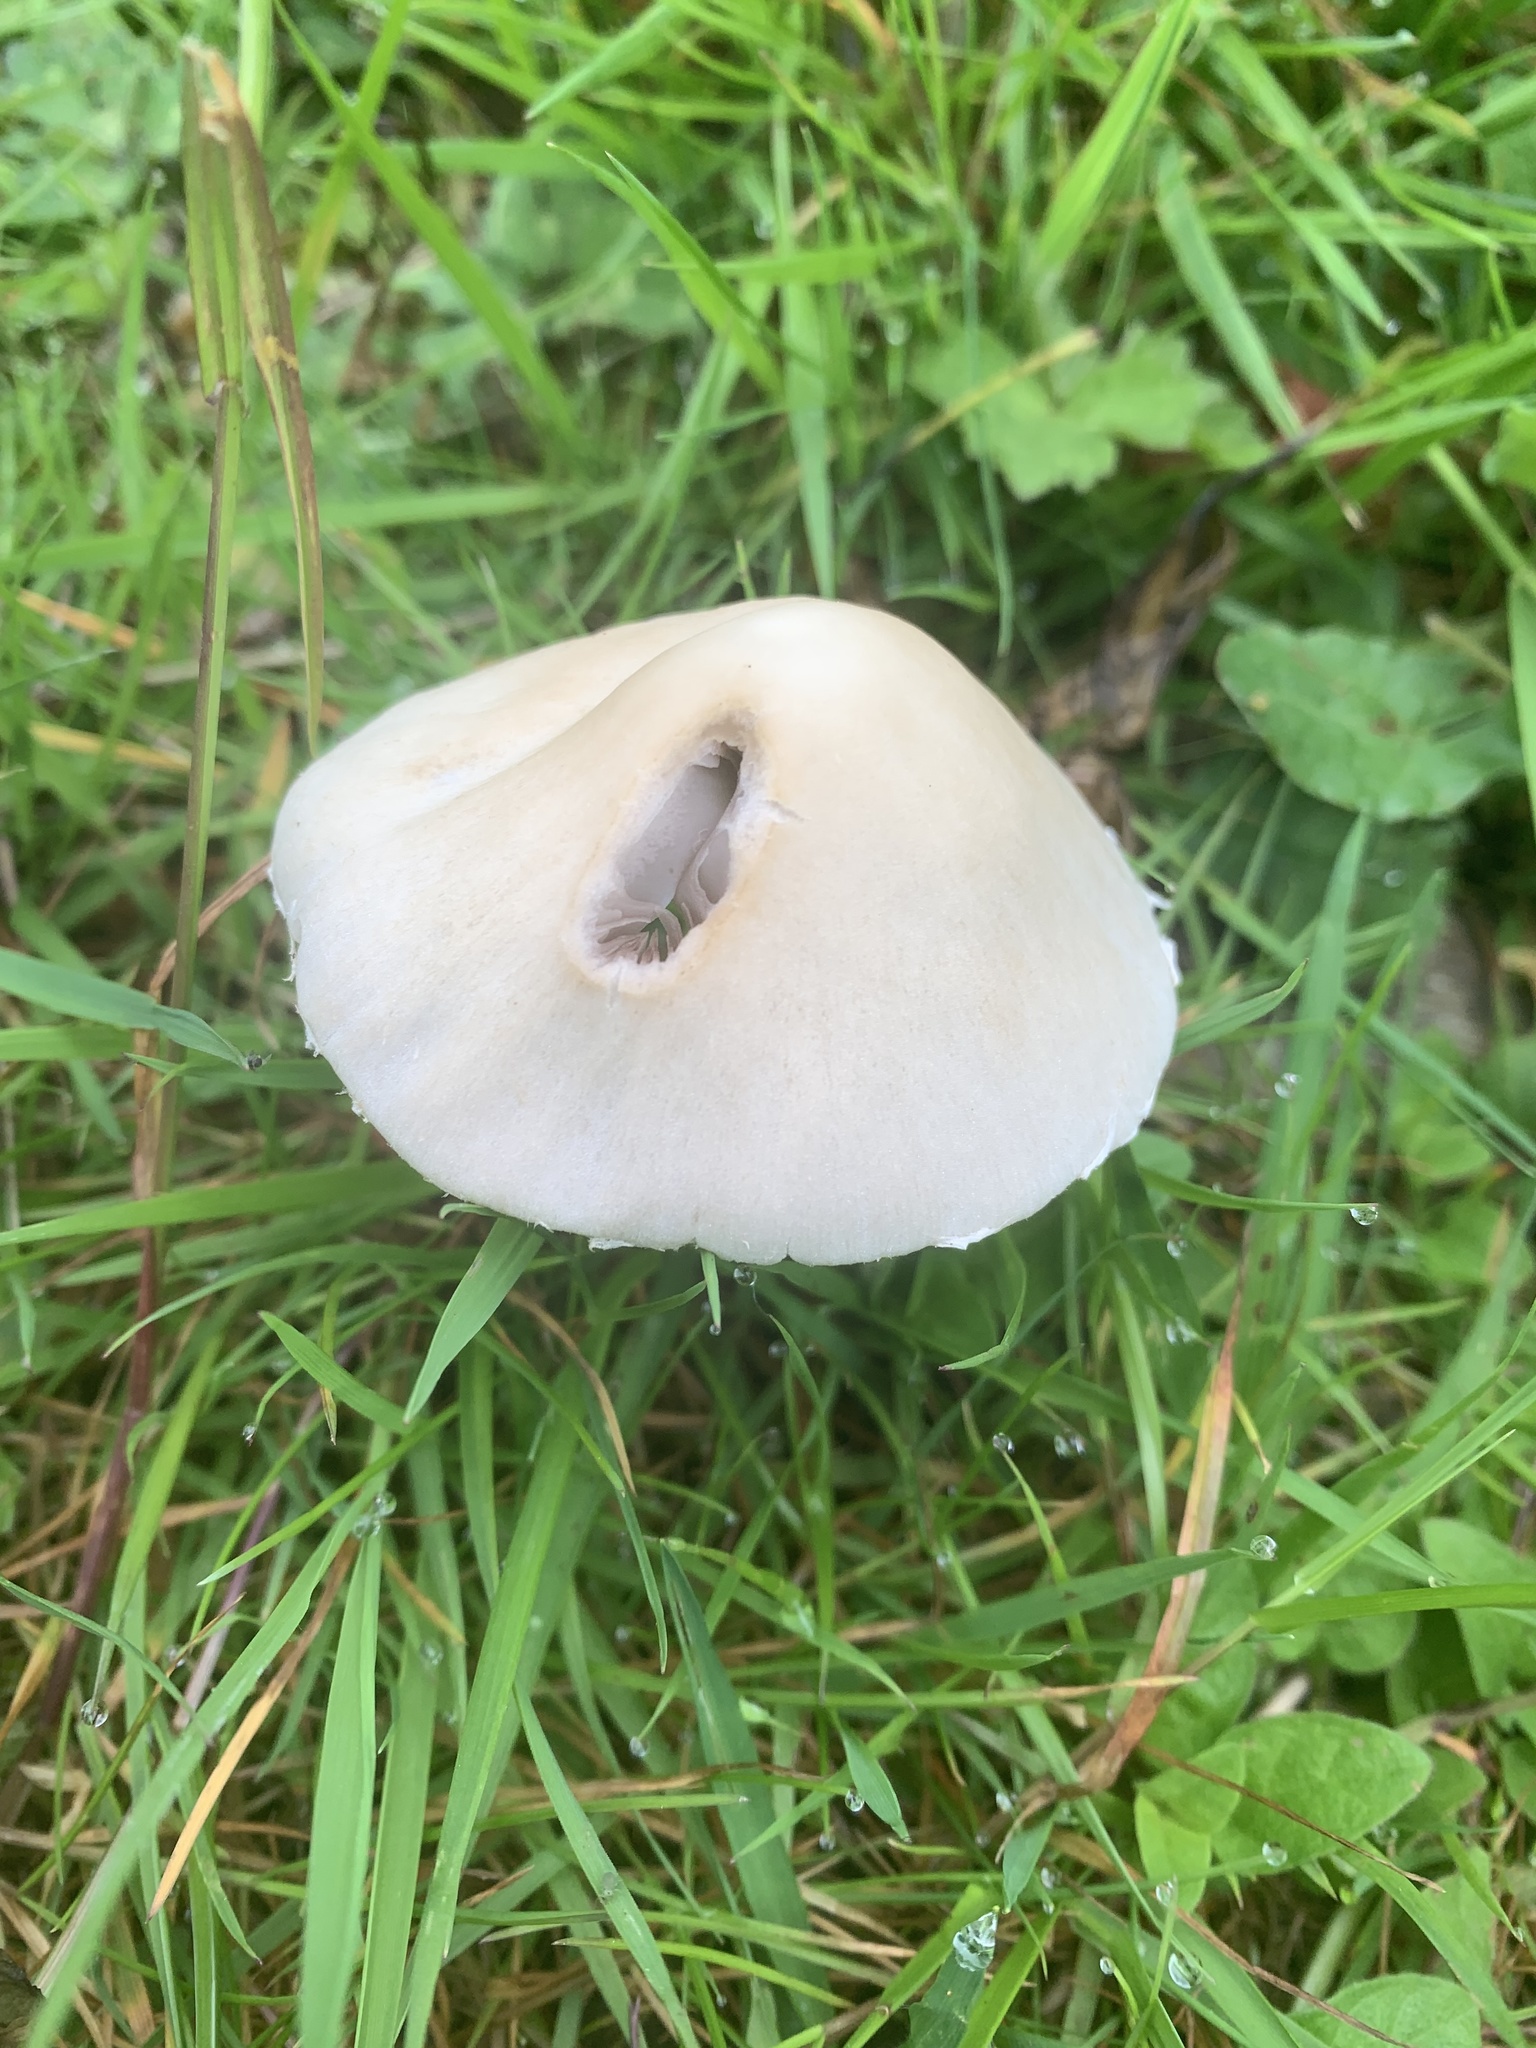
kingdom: Fungi
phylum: Basidiomycota
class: Agaricomycetes
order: Agaricales
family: Psathyrellaceae
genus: Candolleomyces
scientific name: Candolleomyces candolleanus
